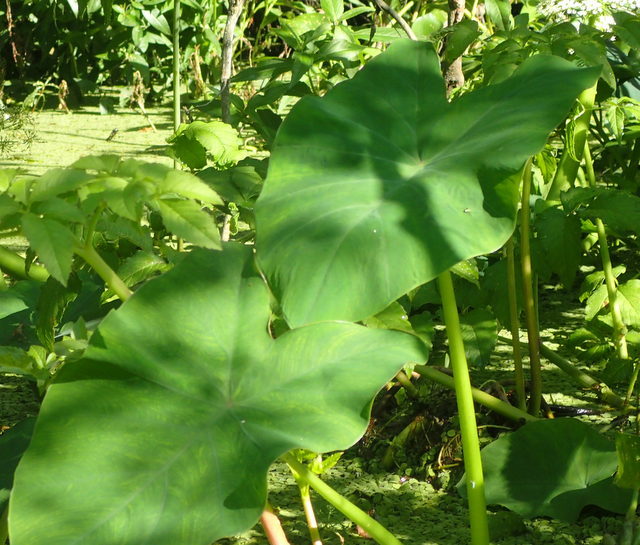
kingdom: Plantae
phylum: Tracheophyta
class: Liliopsida
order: Alismatales
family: Araceae
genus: Colocasia
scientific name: Colocasia esculenta
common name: Taro
